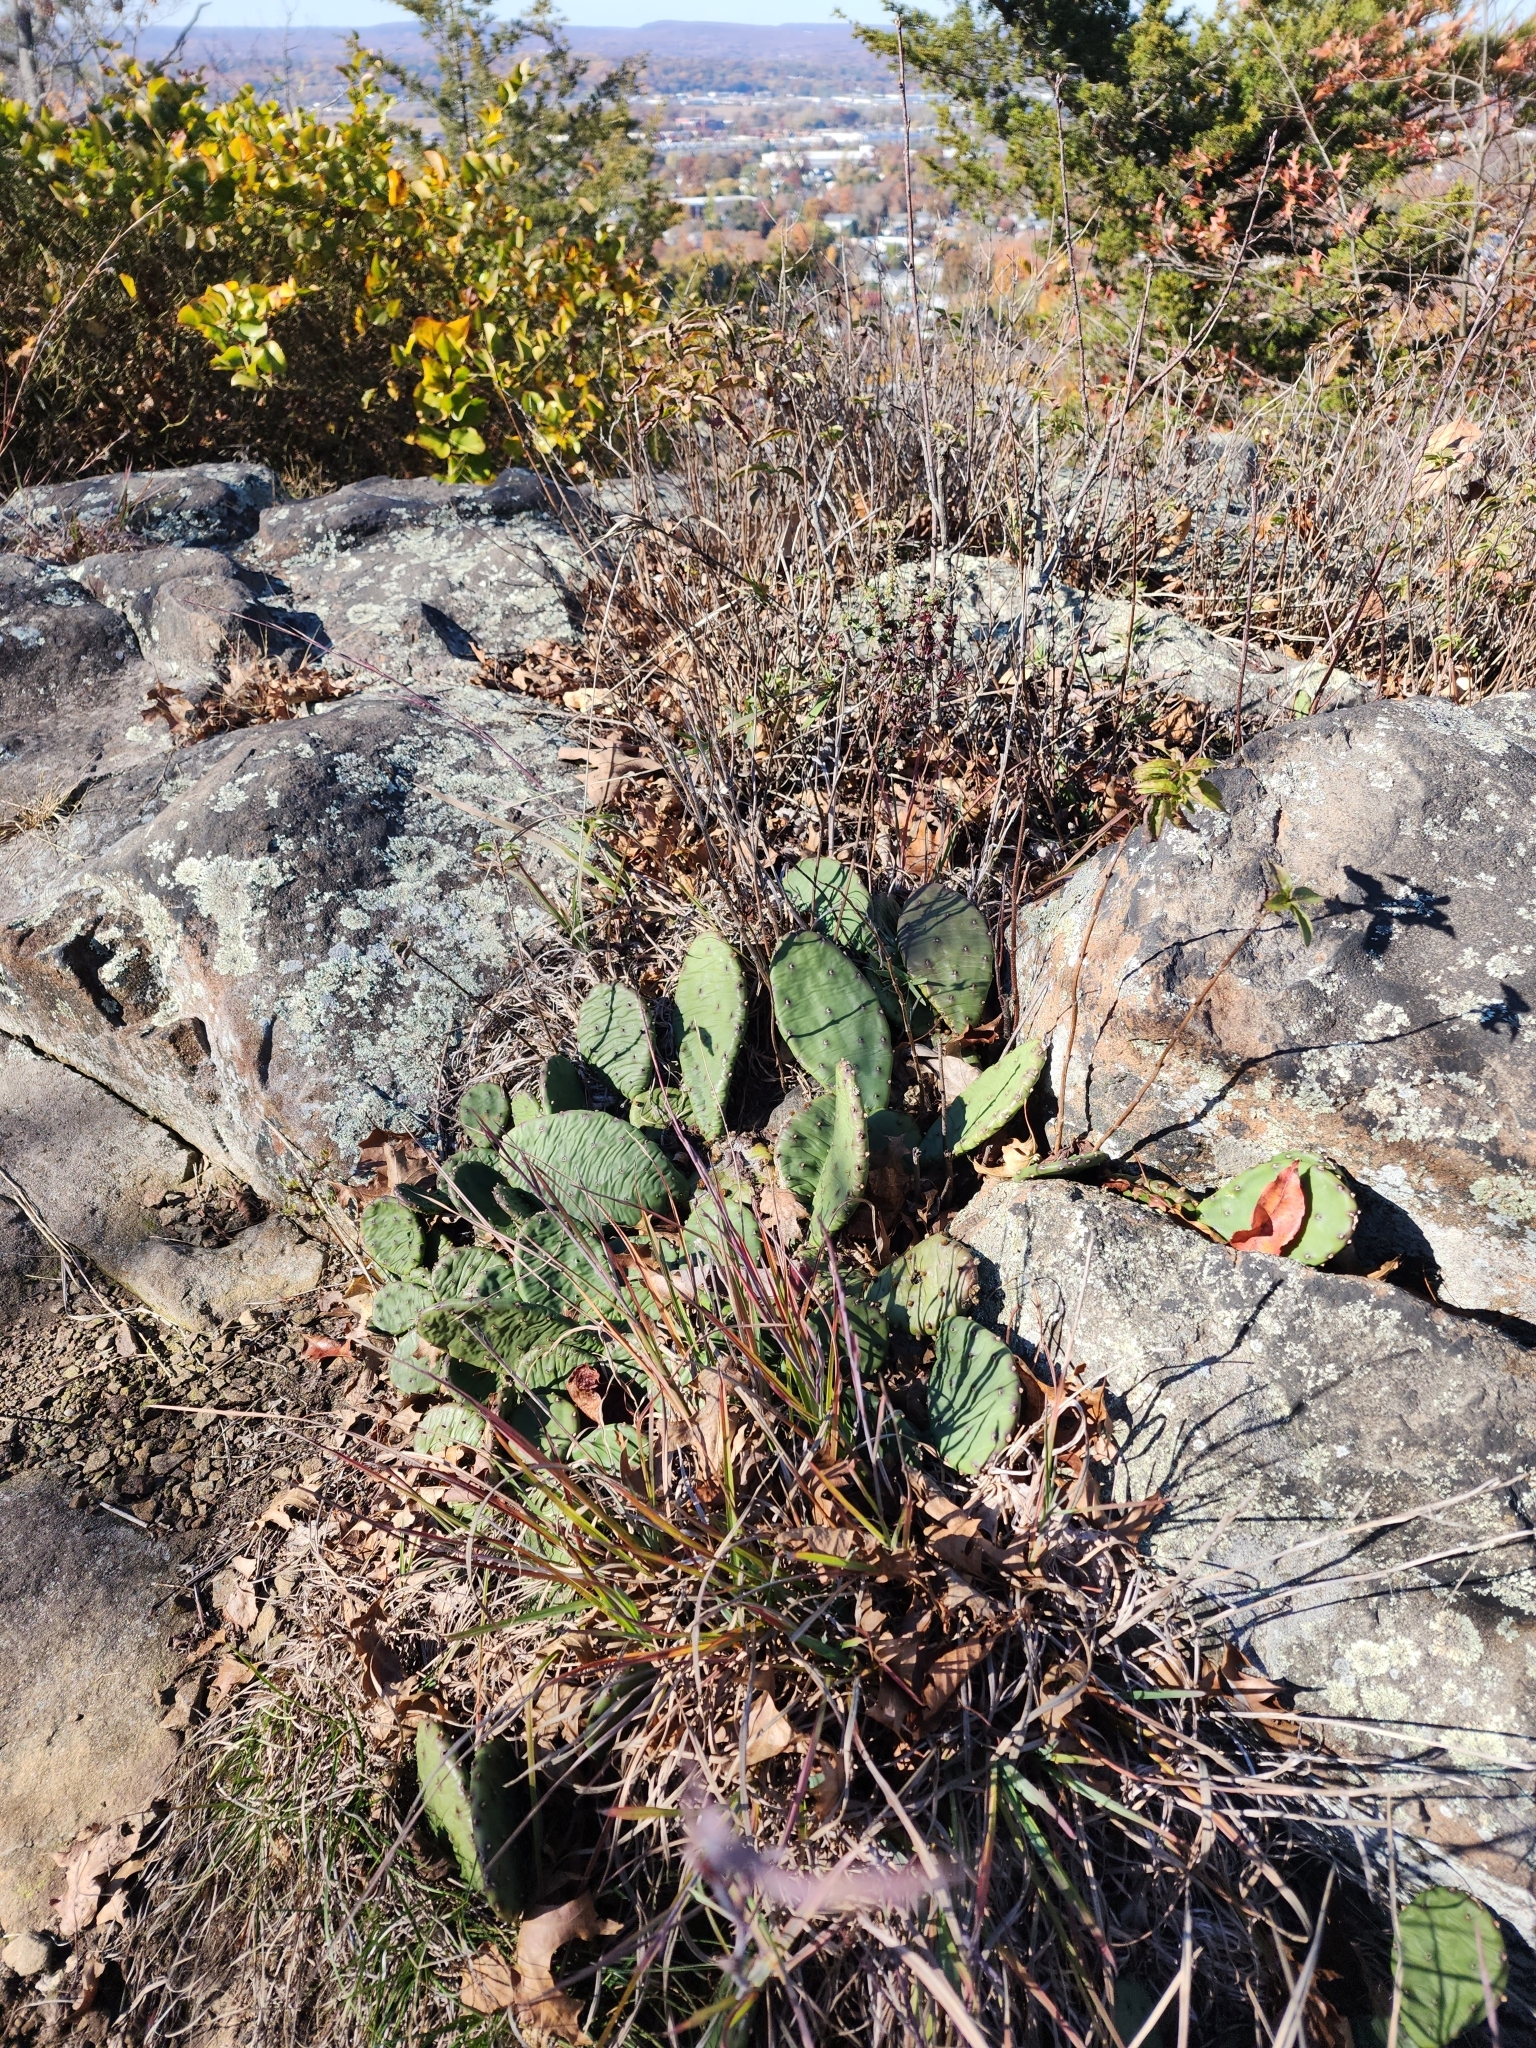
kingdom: Plantae
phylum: Tracheophyta
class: Magnoliopsida
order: Caryophyllales
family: Cactaceae
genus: Opuntia
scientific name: Opuntia humifusa
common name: Eastern prickly-pear
